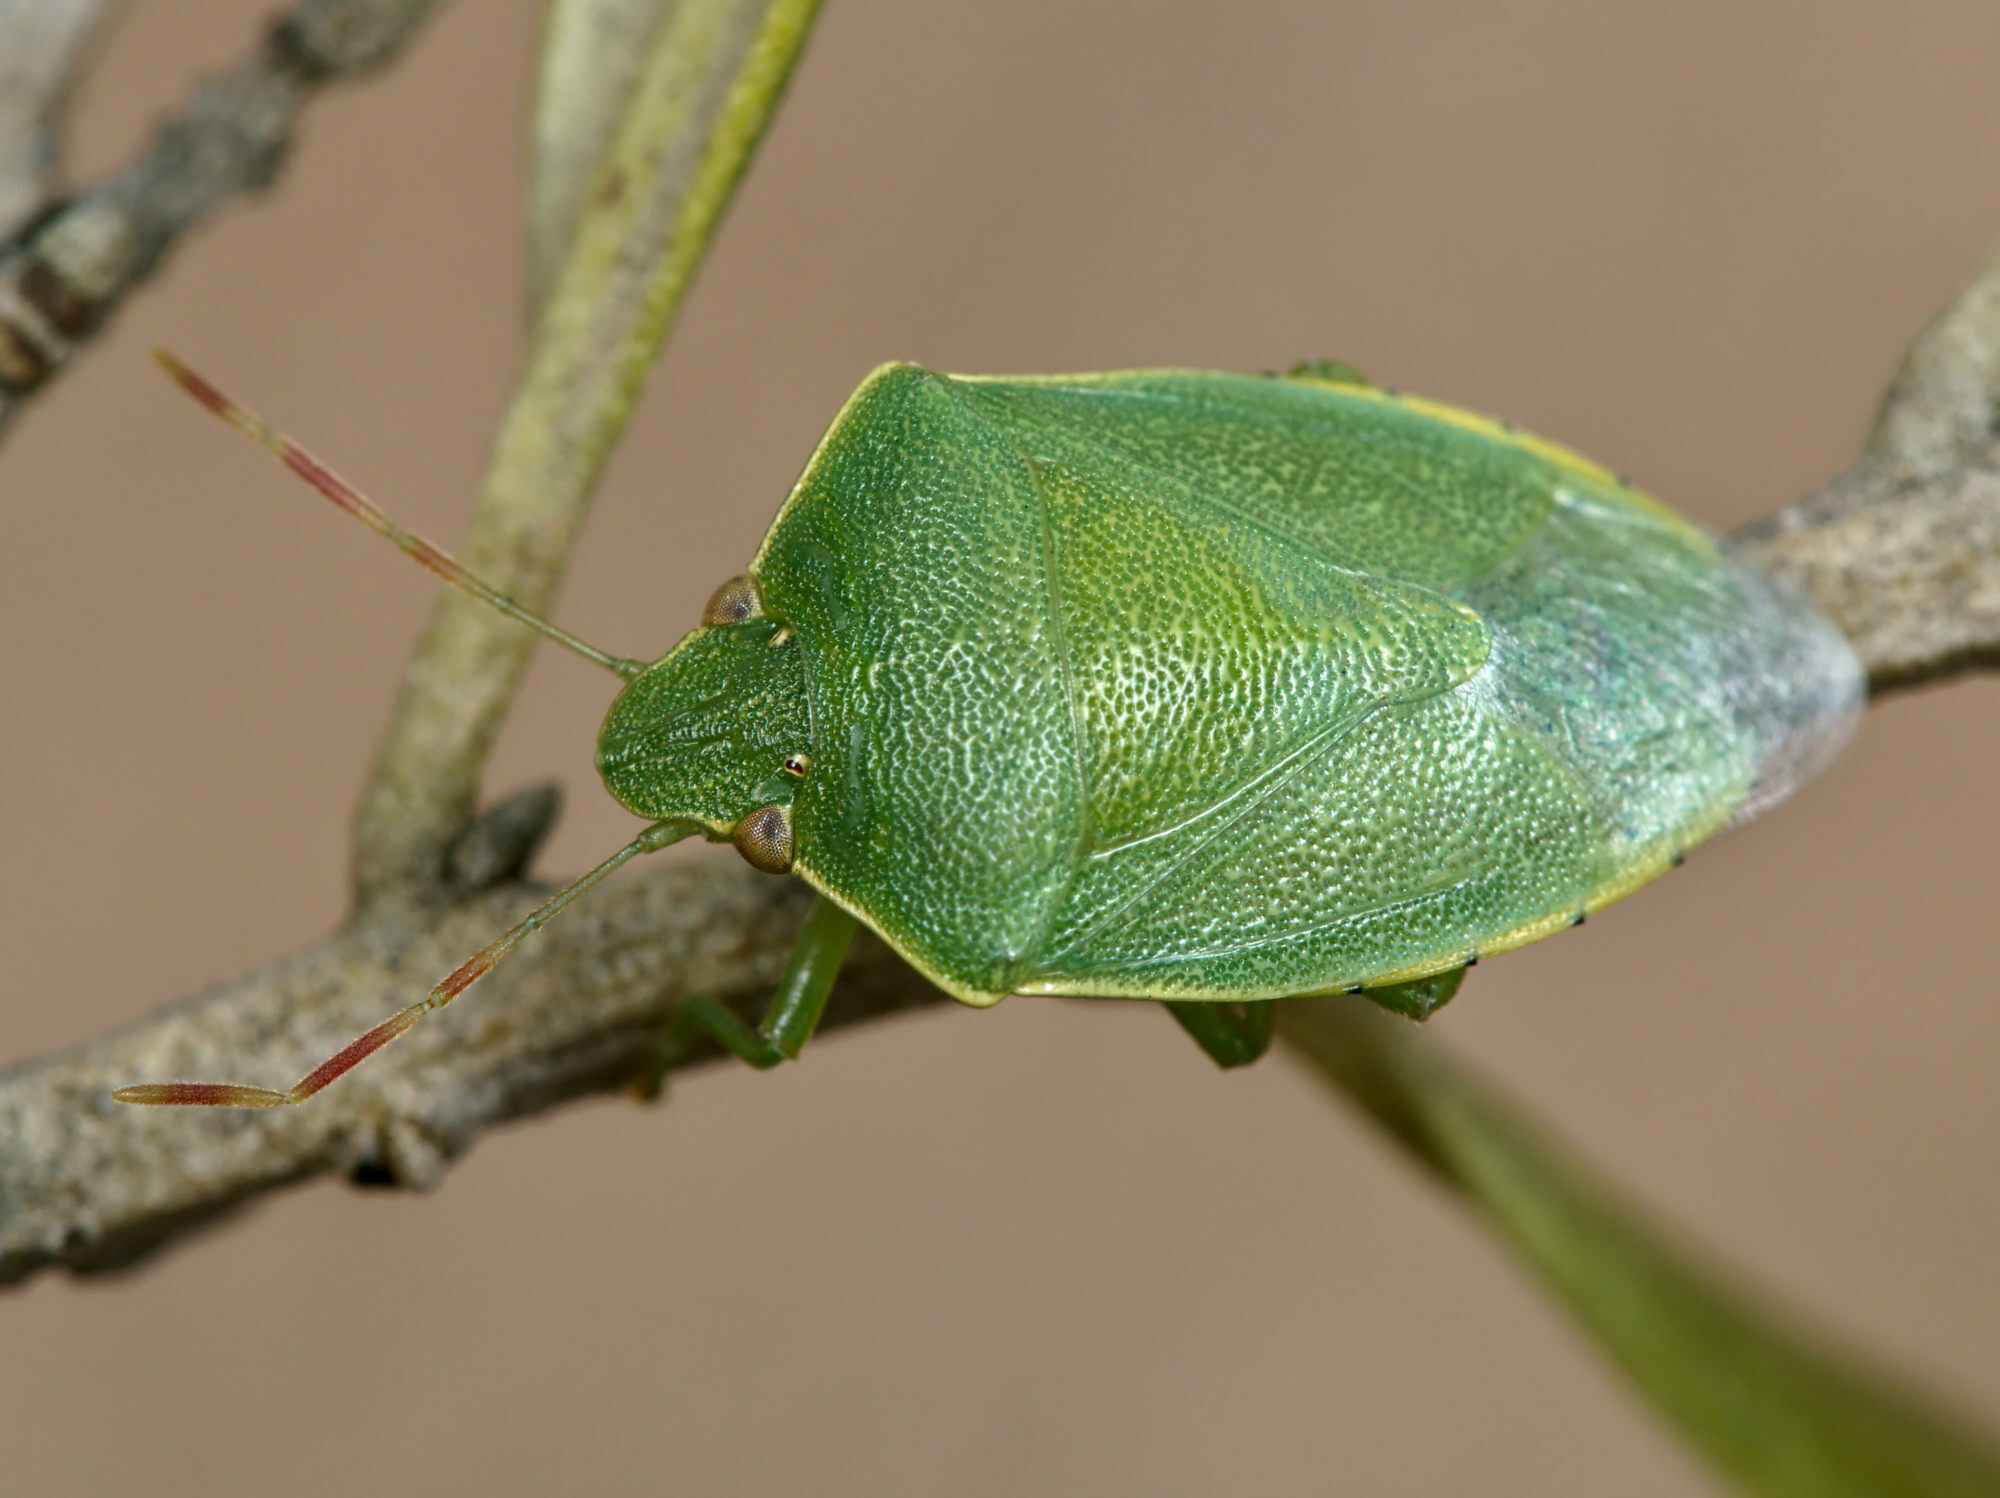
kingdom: Animalia
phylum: Arthropoda
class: Insecta
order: Hemiptera
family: Pentatomidae
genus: Acrosternum
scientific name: Acrosternum heegeri
